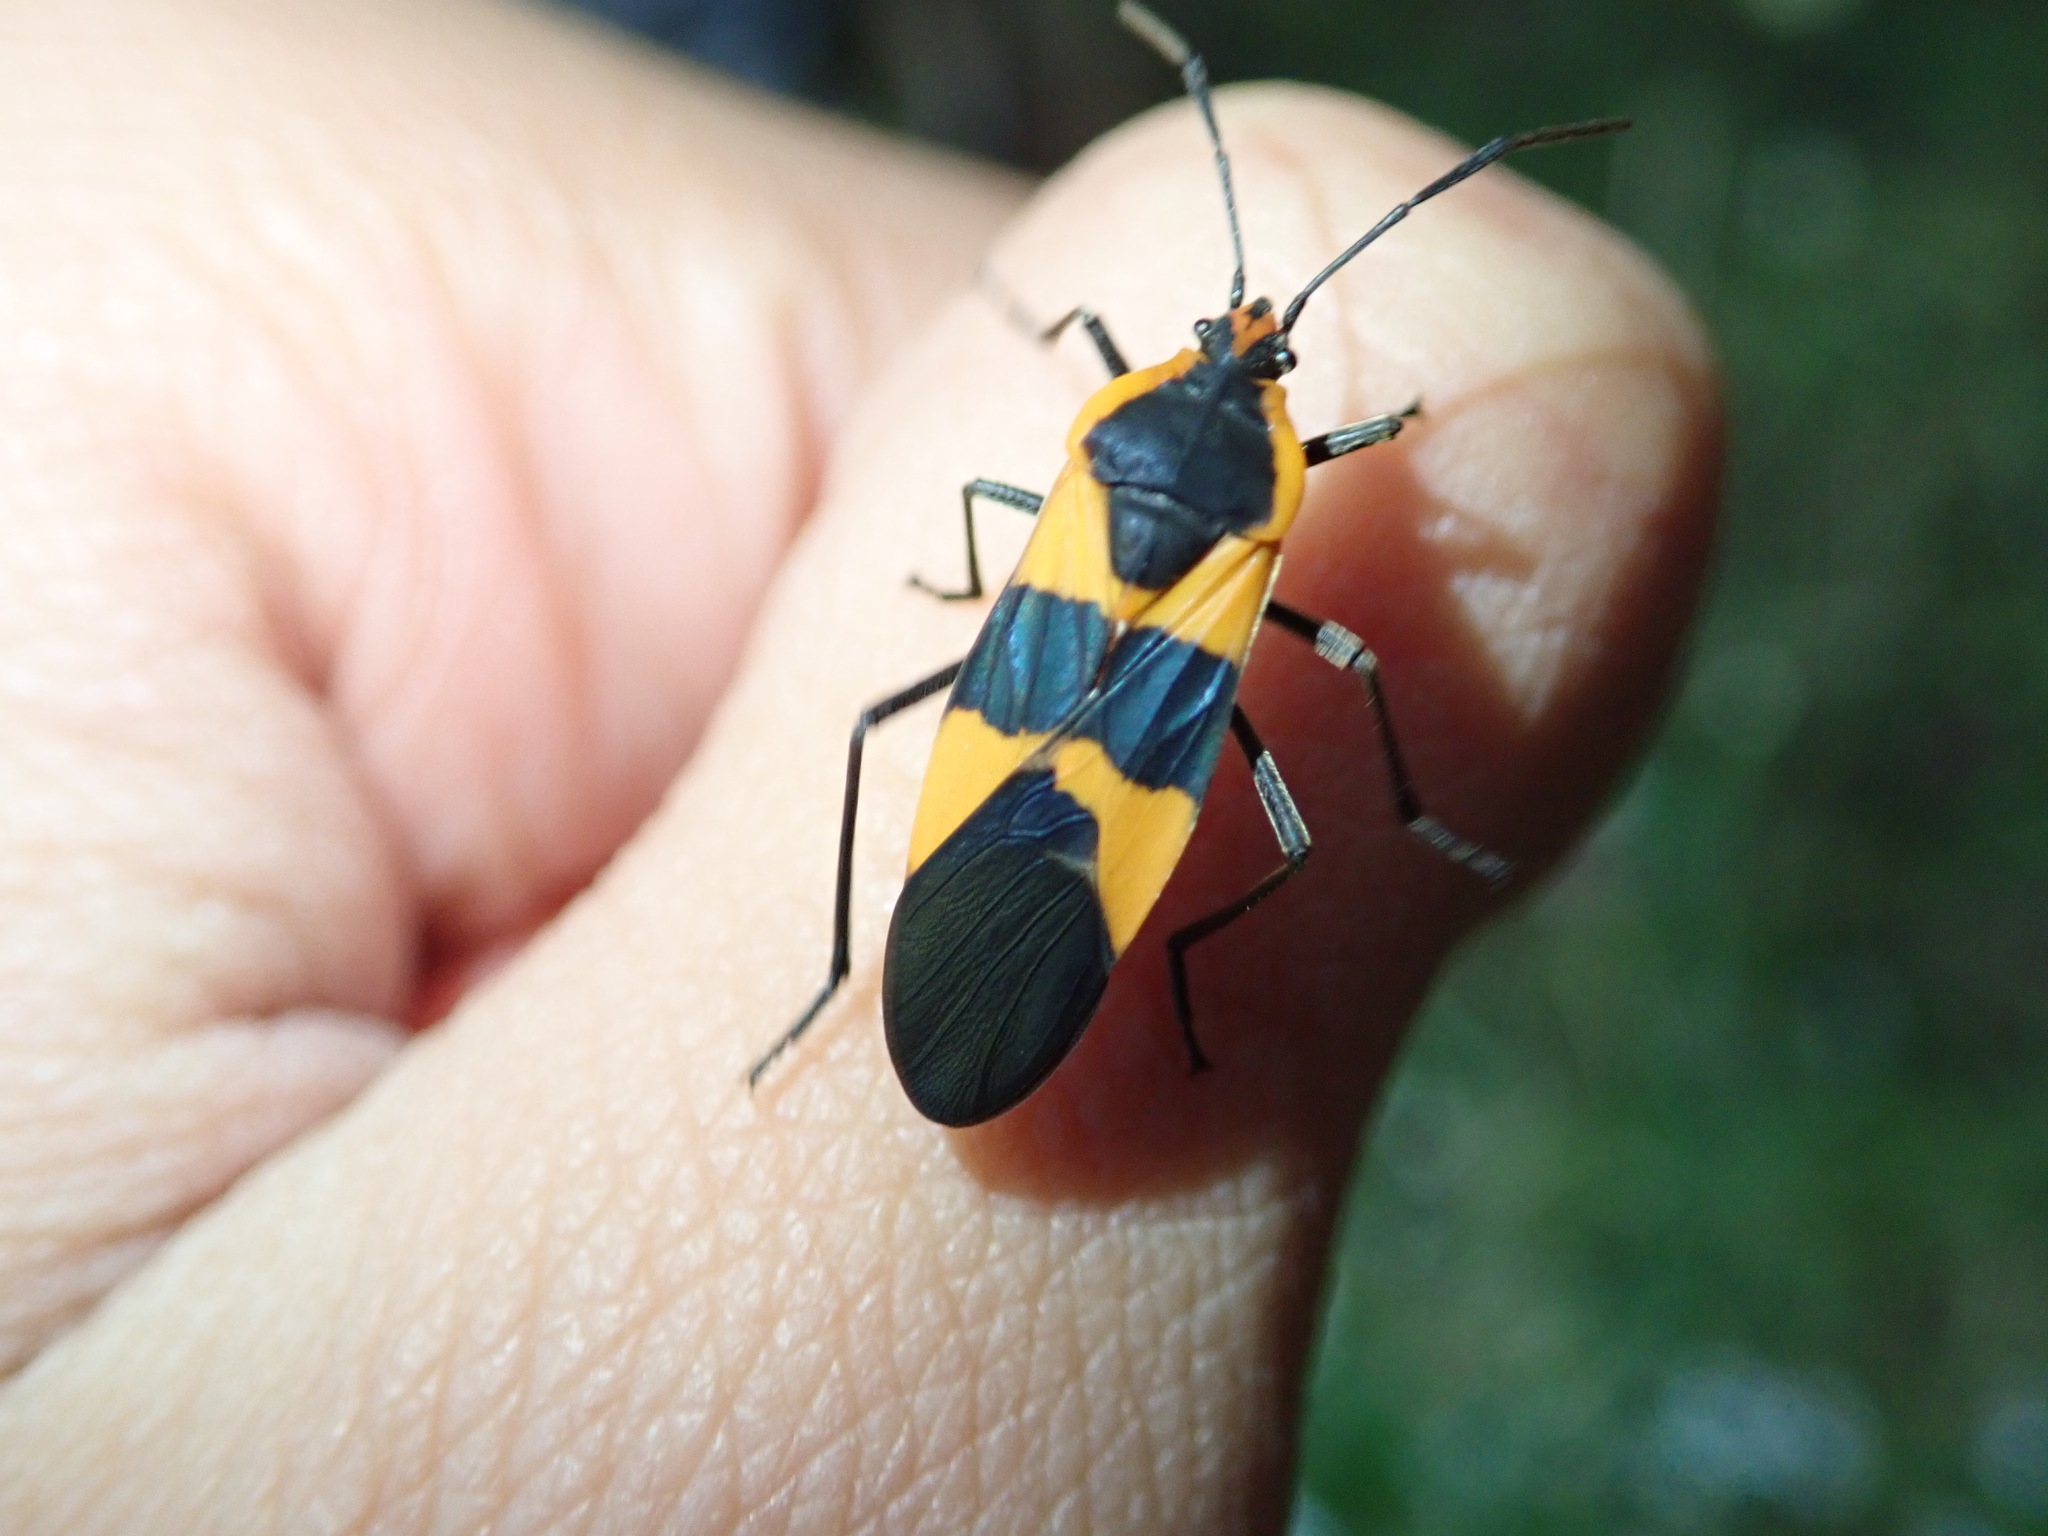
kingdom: Animalia
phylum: Arthropoda
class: Insecta
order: Hemiptera
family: Lygaeidae
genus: Oncopeltus
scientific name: Oncopeltus fasciatus
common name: Large milkweed bug
